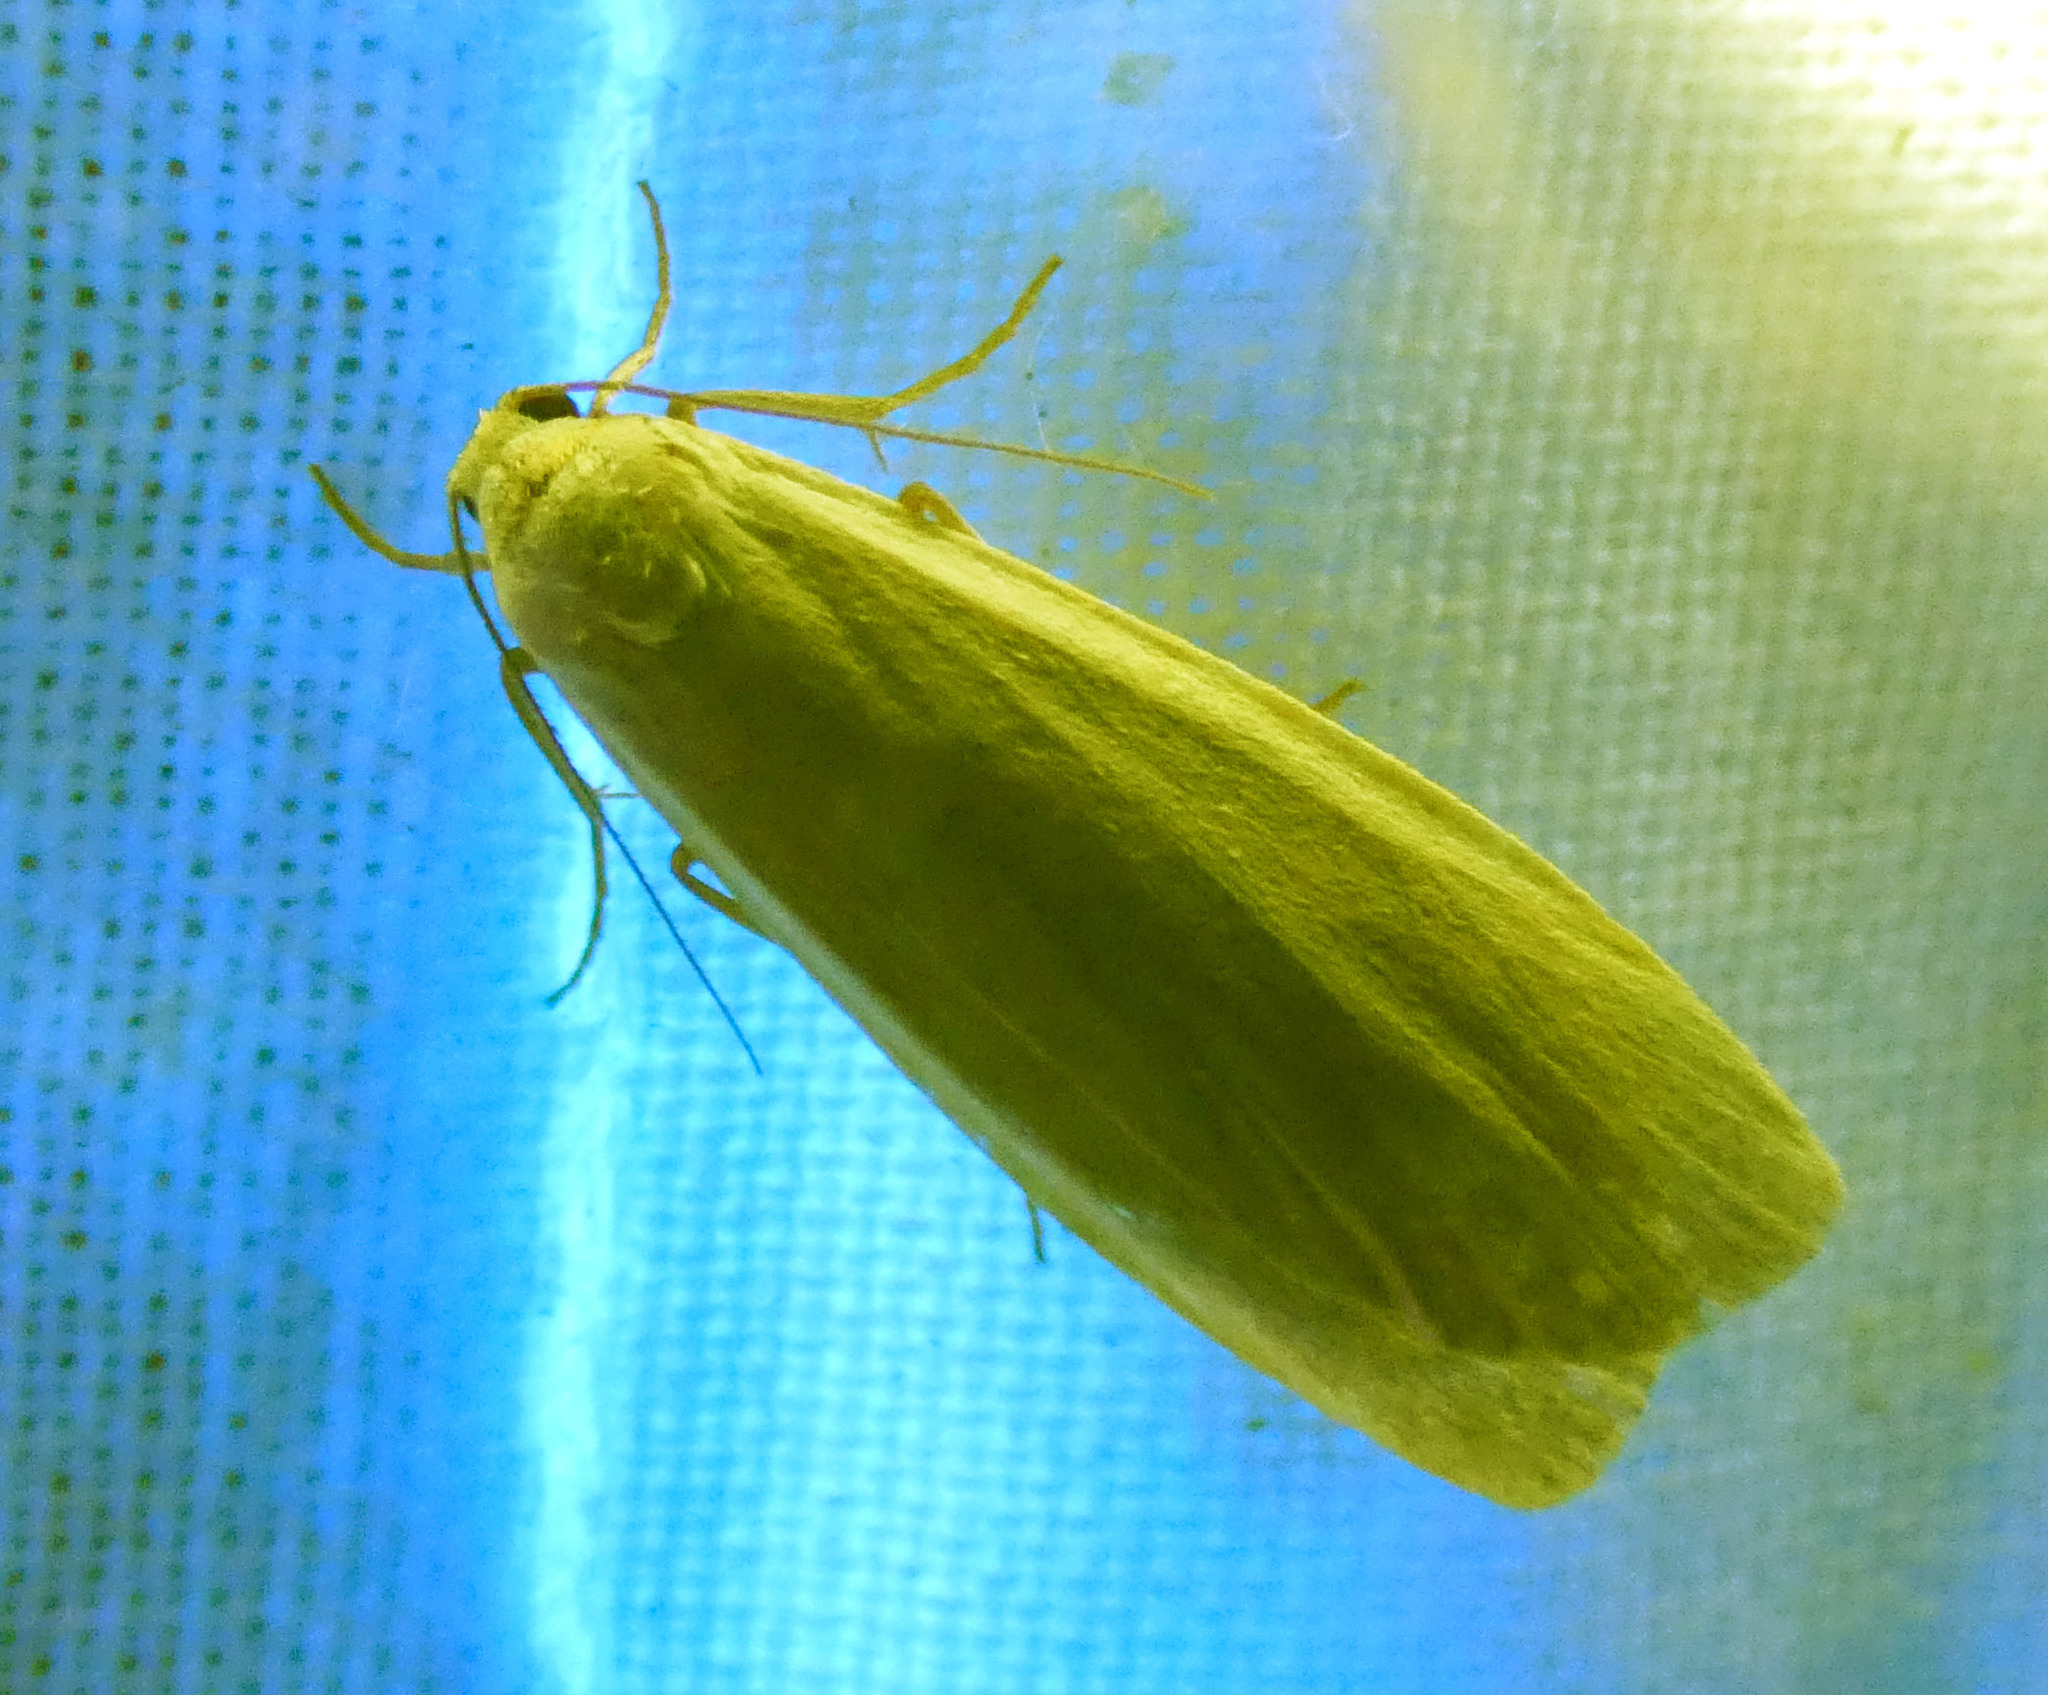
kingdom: Animalia
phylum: Arthropoda
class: Insecta
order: Lepidoptera
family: Erebidae
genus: Nyea
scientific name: Nyea lurideola
